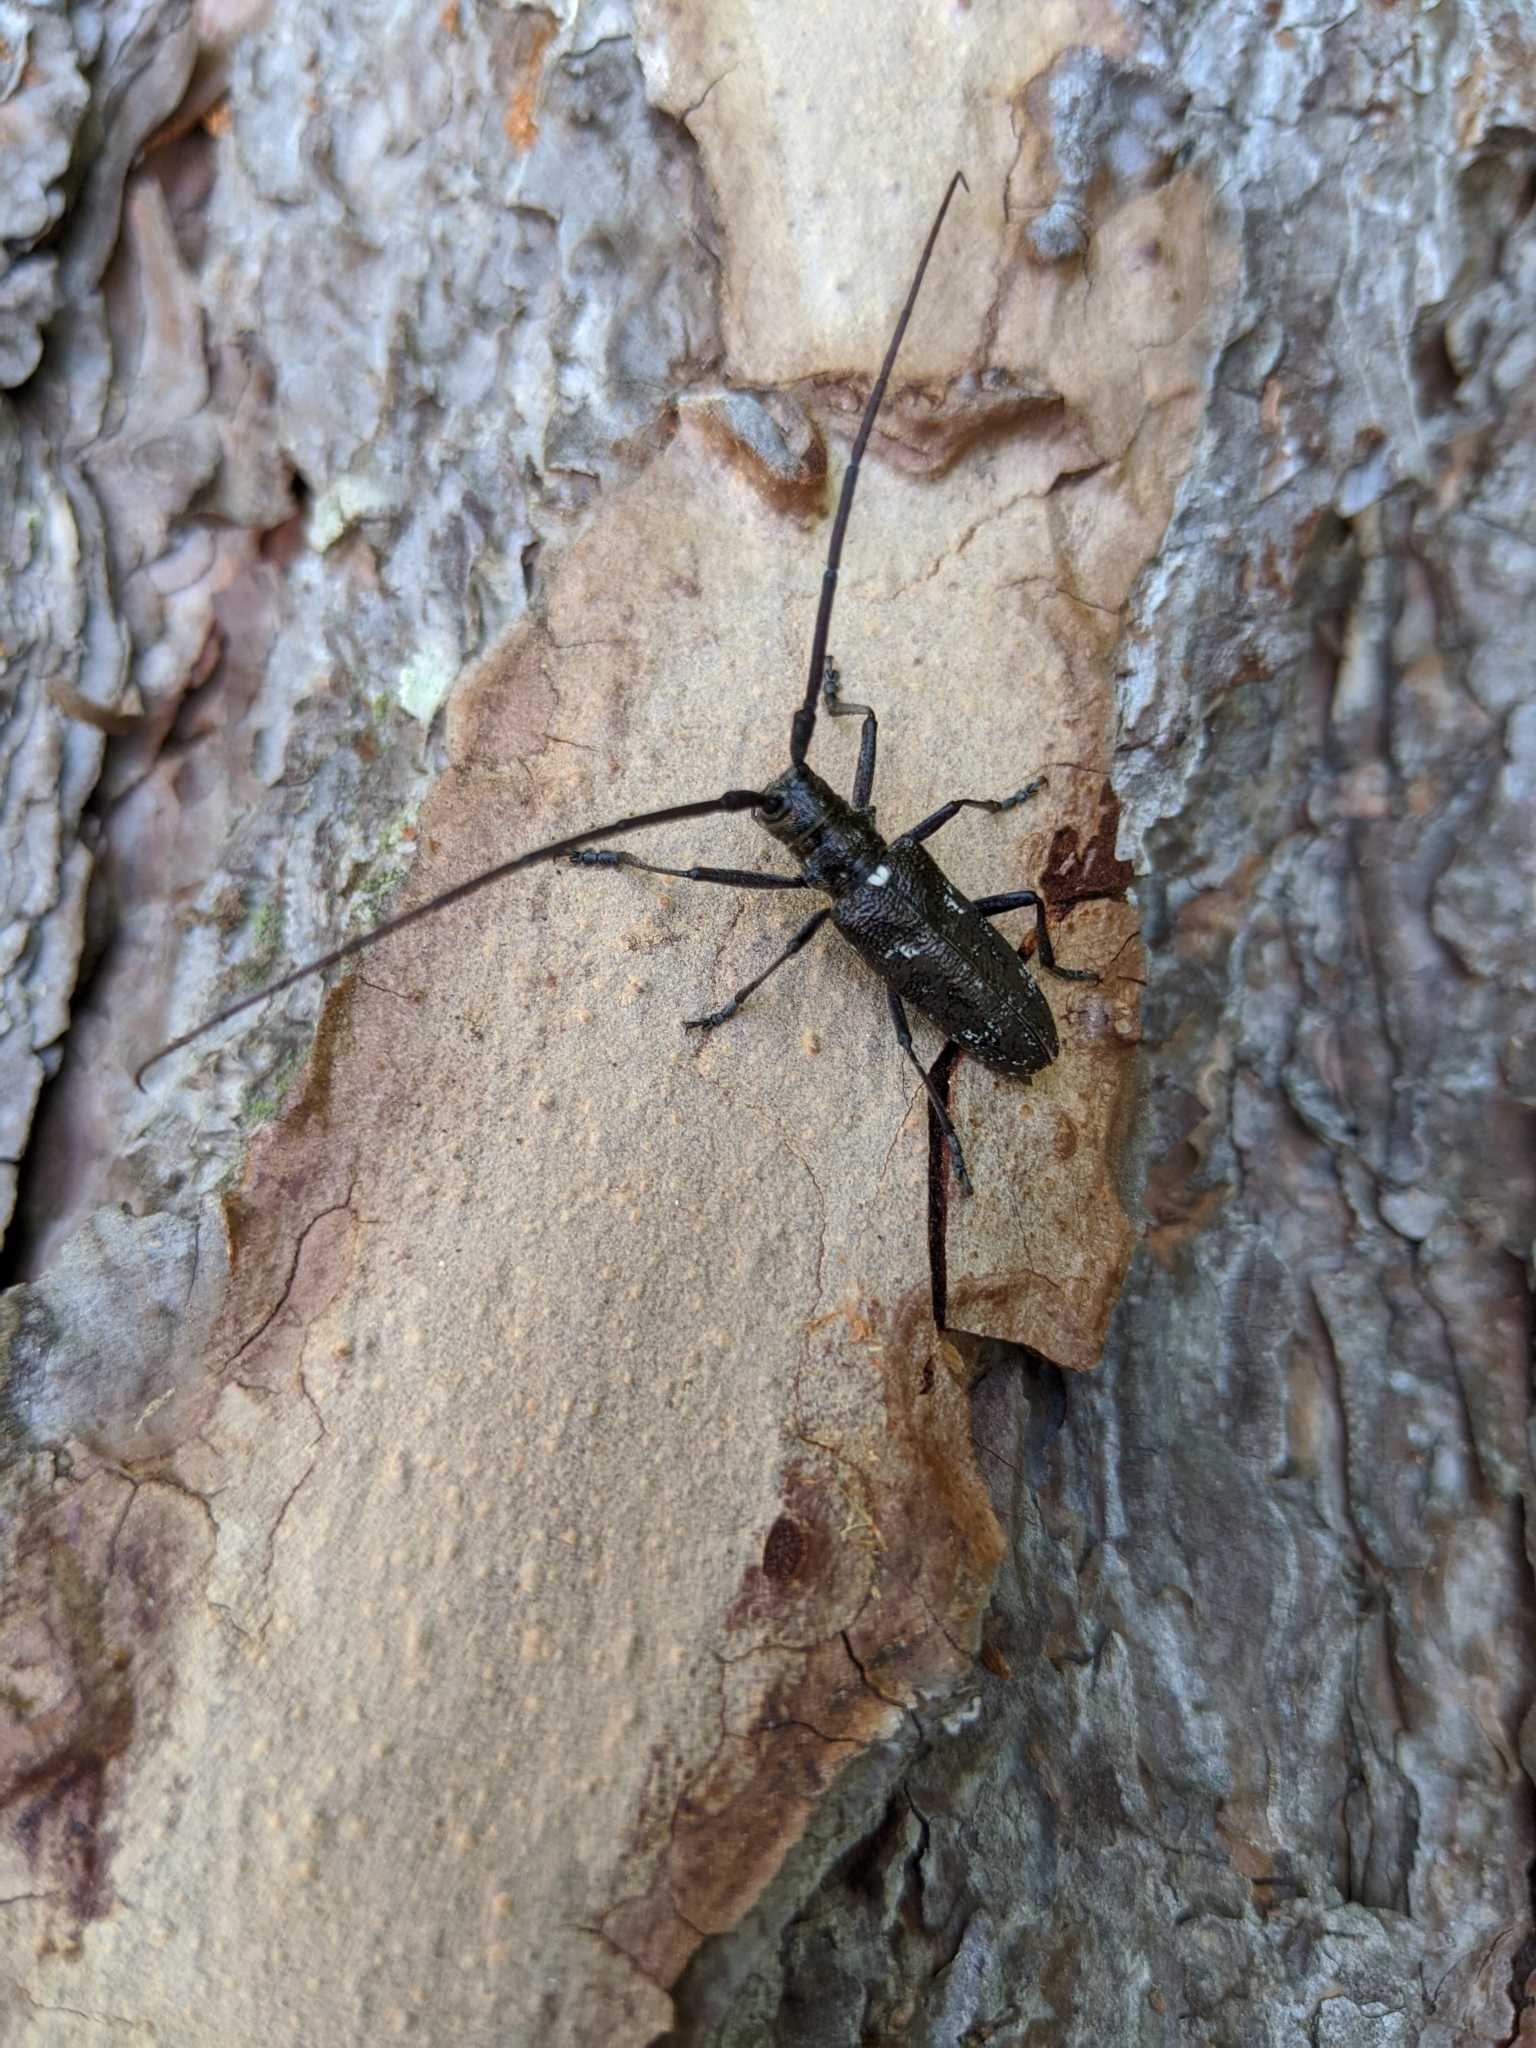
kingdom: Animalia
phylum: Arthropoda
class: Insecta
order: Coleoptera
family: Cerambycidae
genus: Monochamus
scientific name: Monochamus scutellatus
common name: White-spotted sawyer beetle
